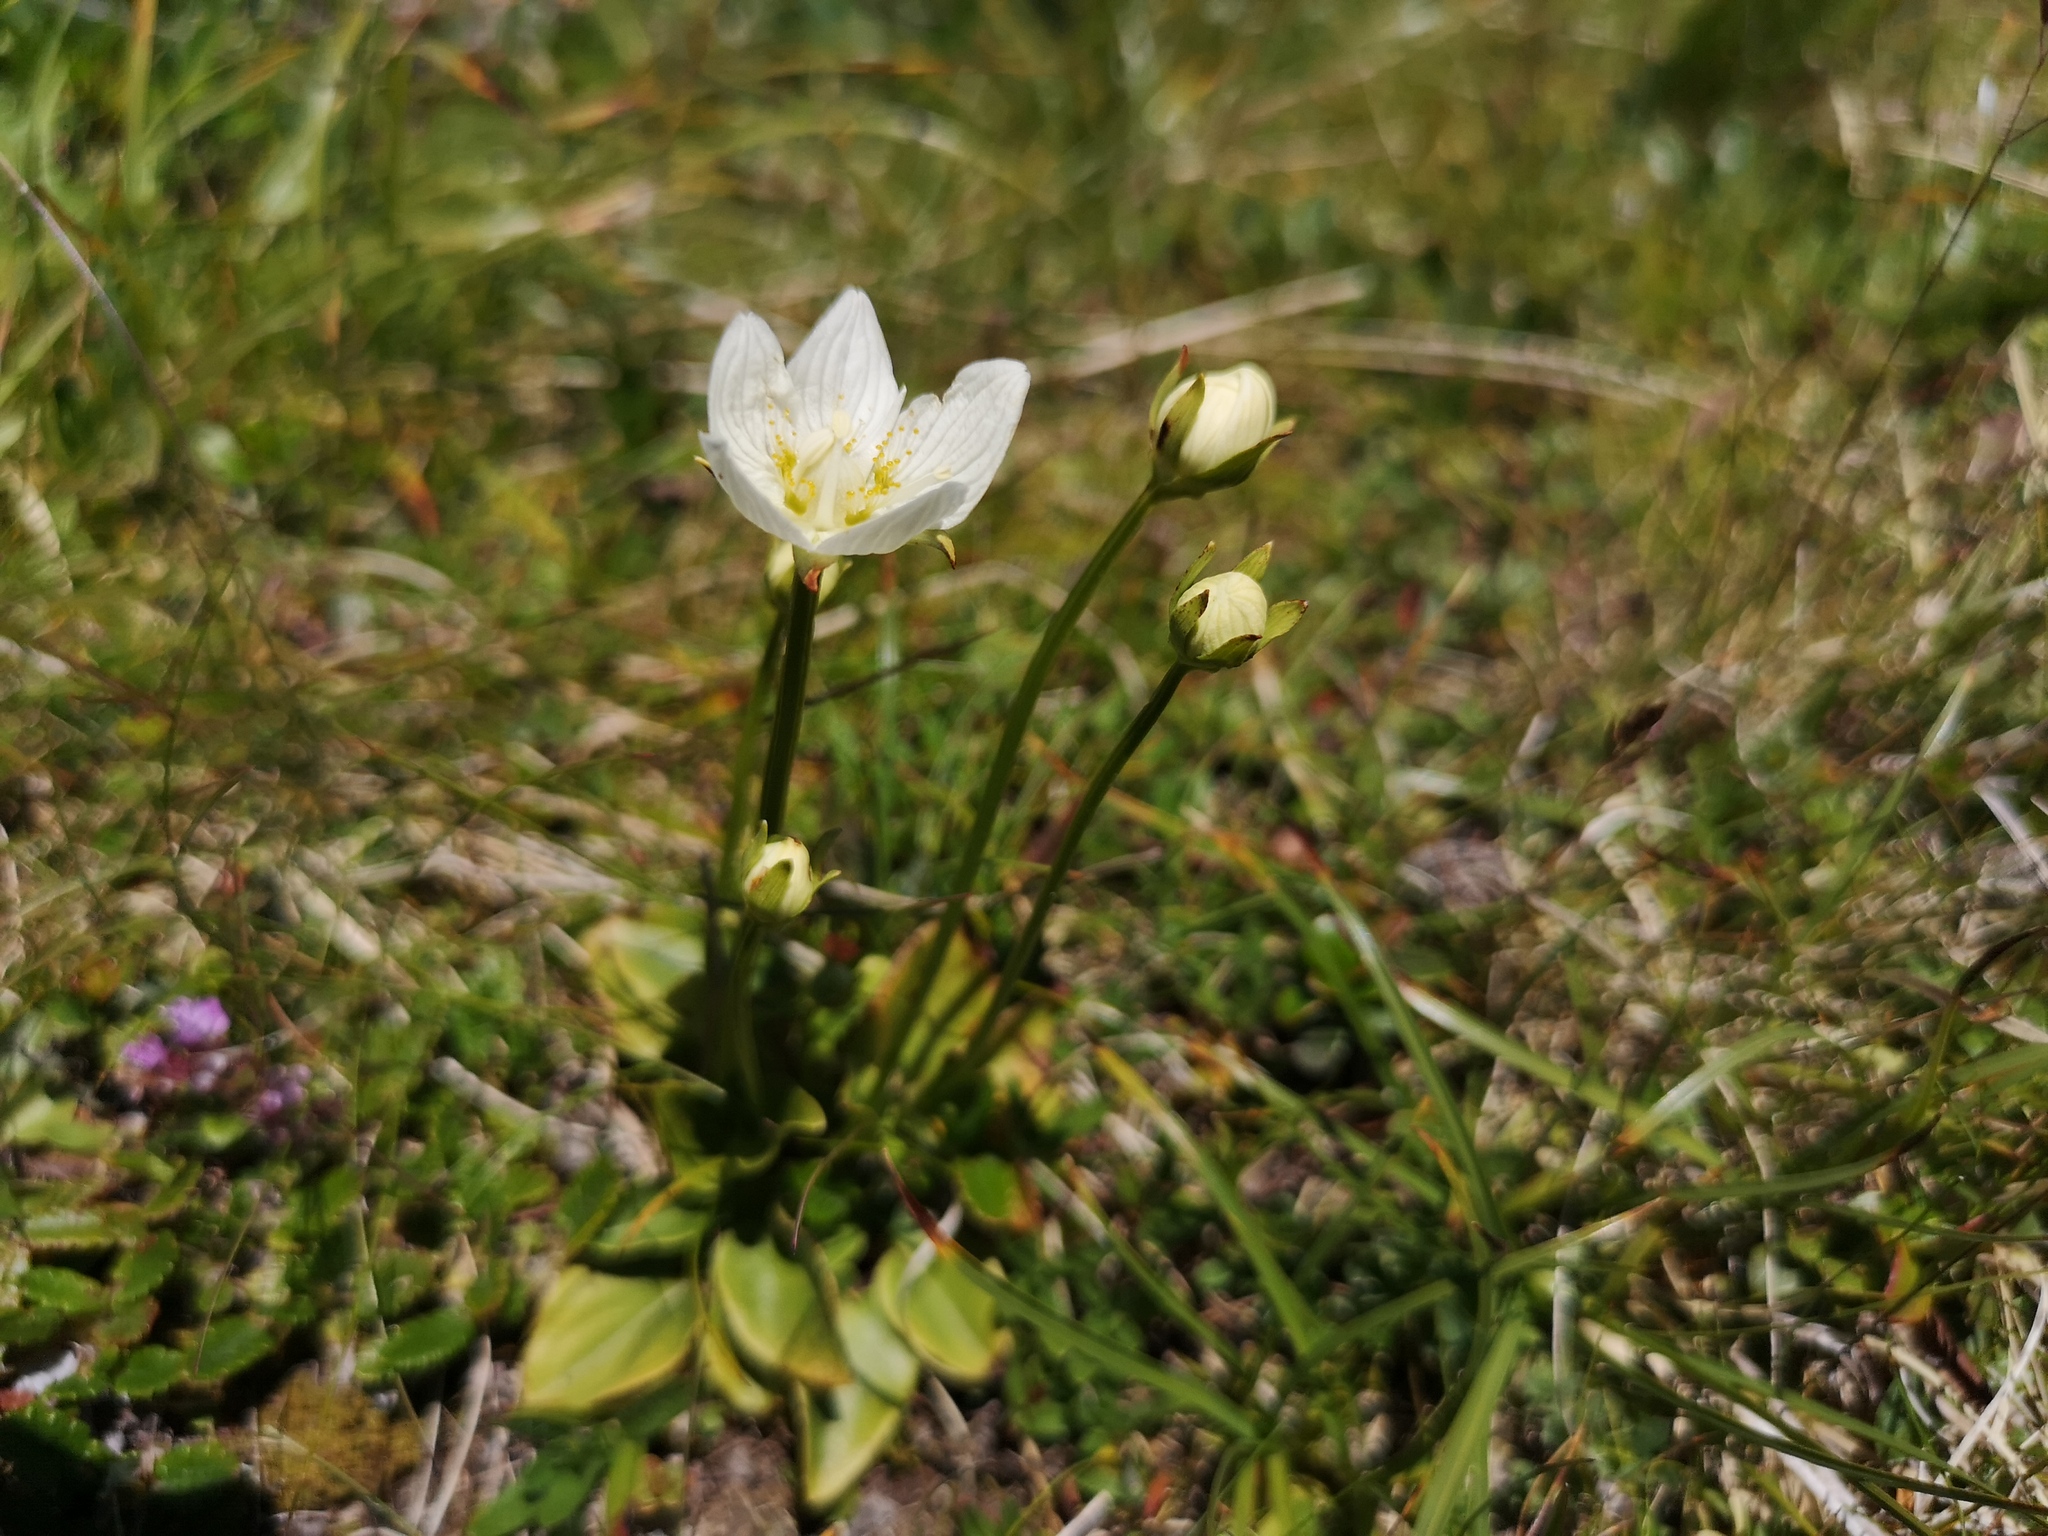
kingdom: Plantae
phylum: Tracheophyta
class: Magnoliopsida
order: Celastrales
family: Parnassiaceae
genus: Parnassia
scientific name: Parnassia palustris
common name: Grass-of-parnassus
